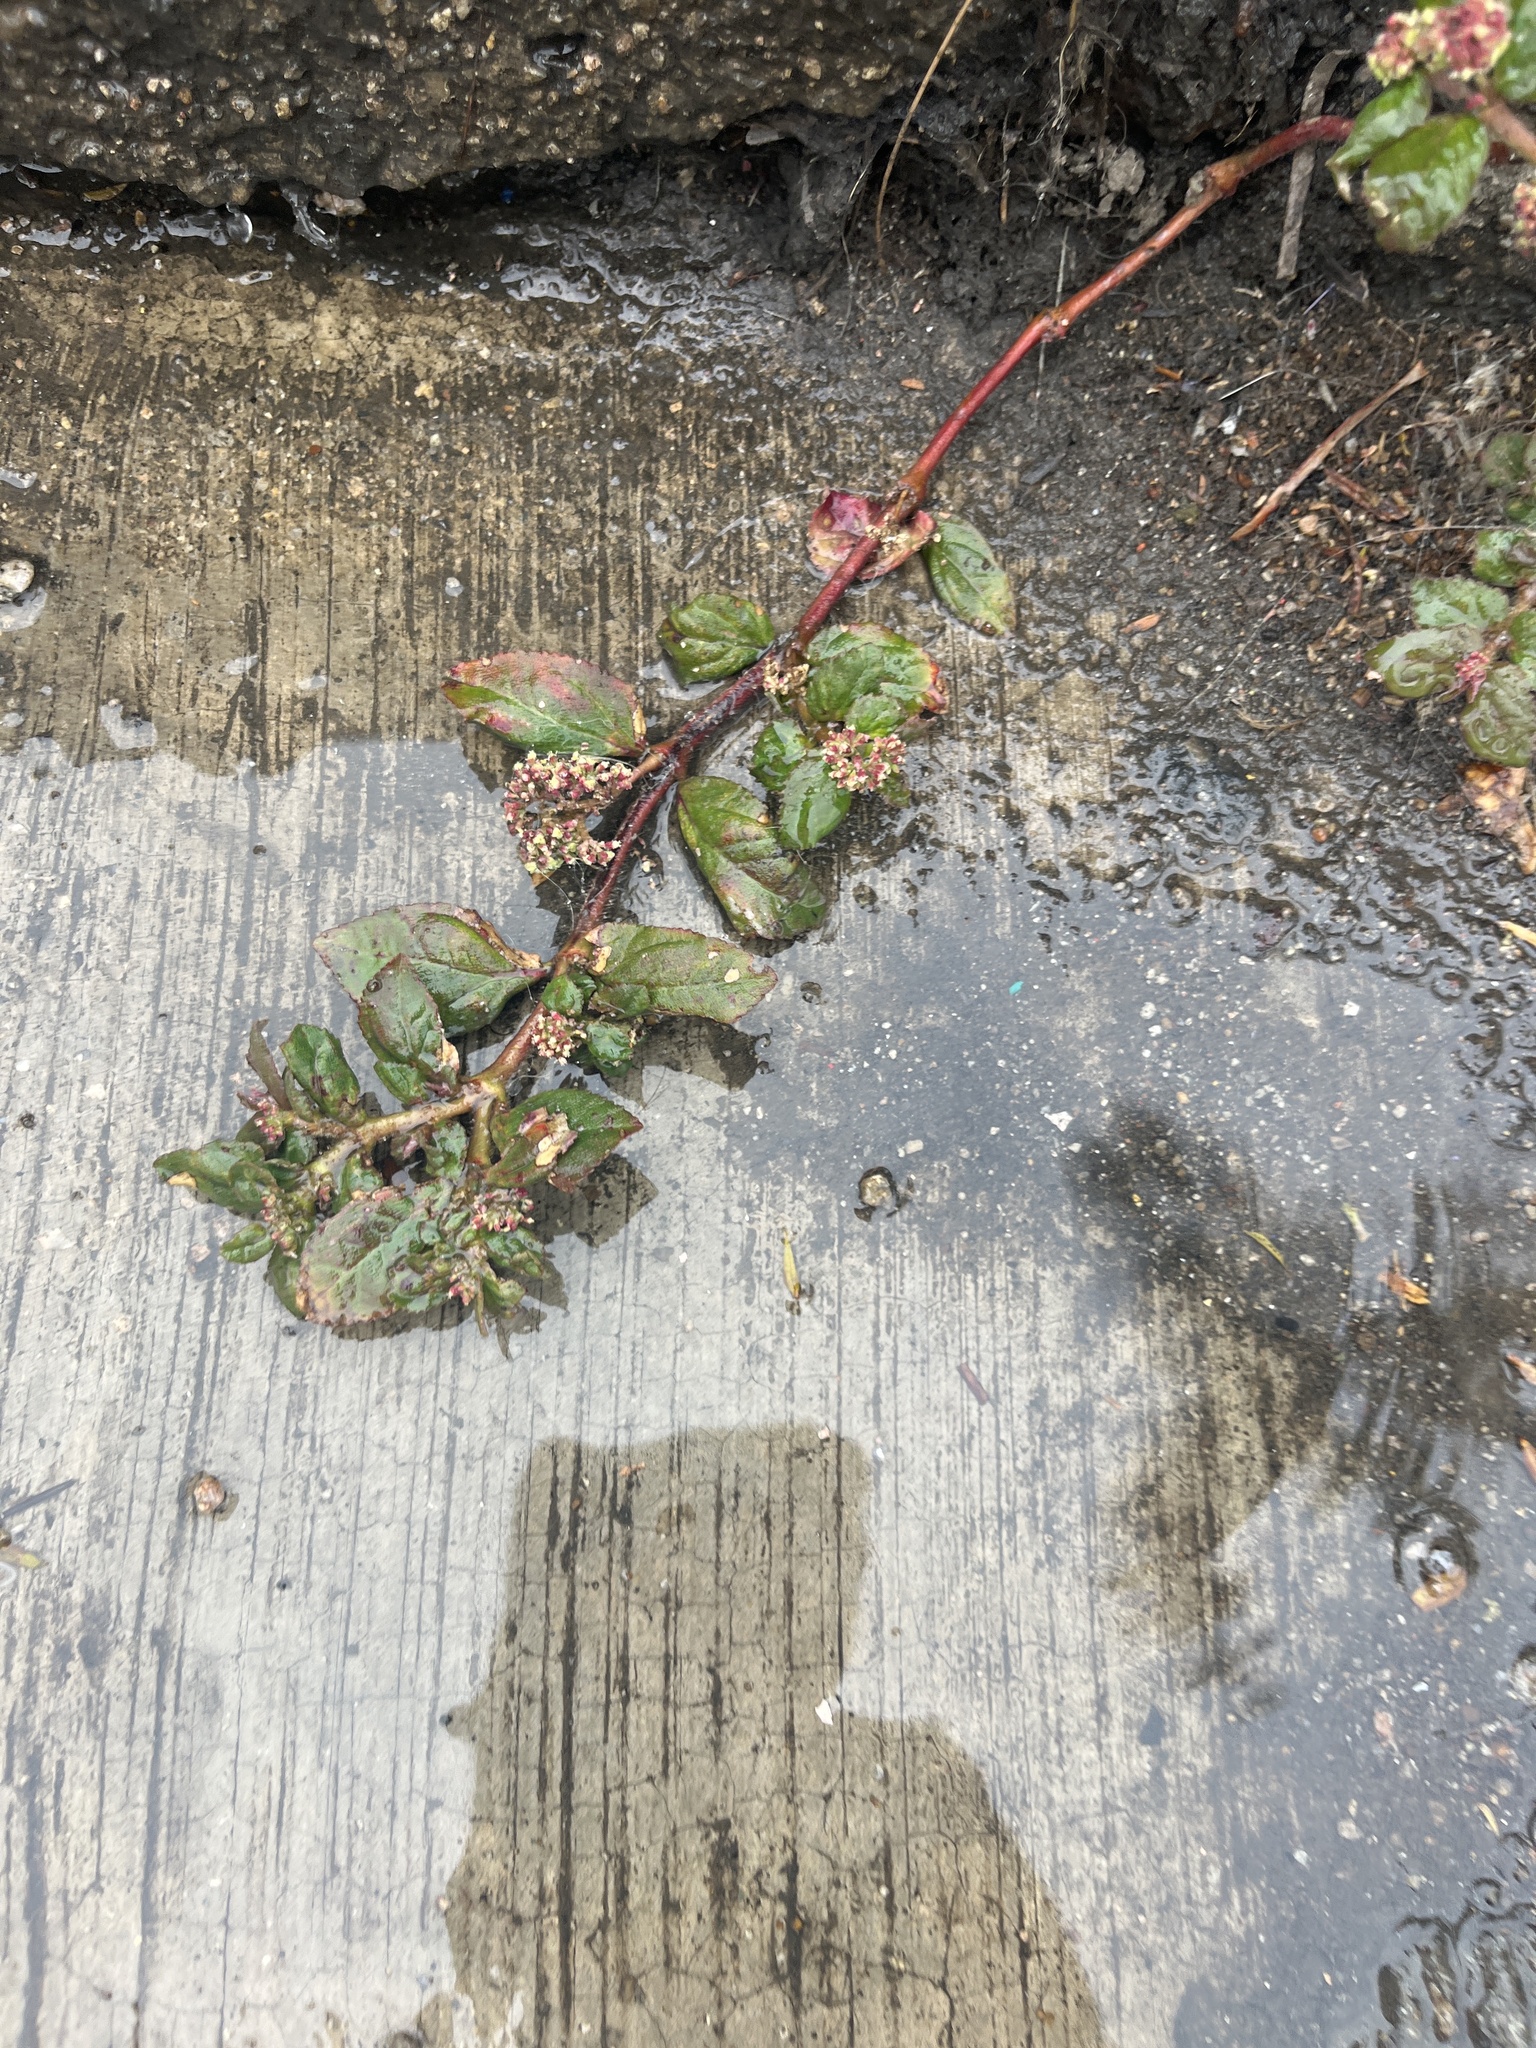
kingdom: Plantae
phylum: Tracheophyta
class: Magnoliopsida
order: Malpighiales
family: Euphorbiaceae
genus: Euphorbia
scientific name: Euphorbia hirta
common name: Pillpod sandmat
